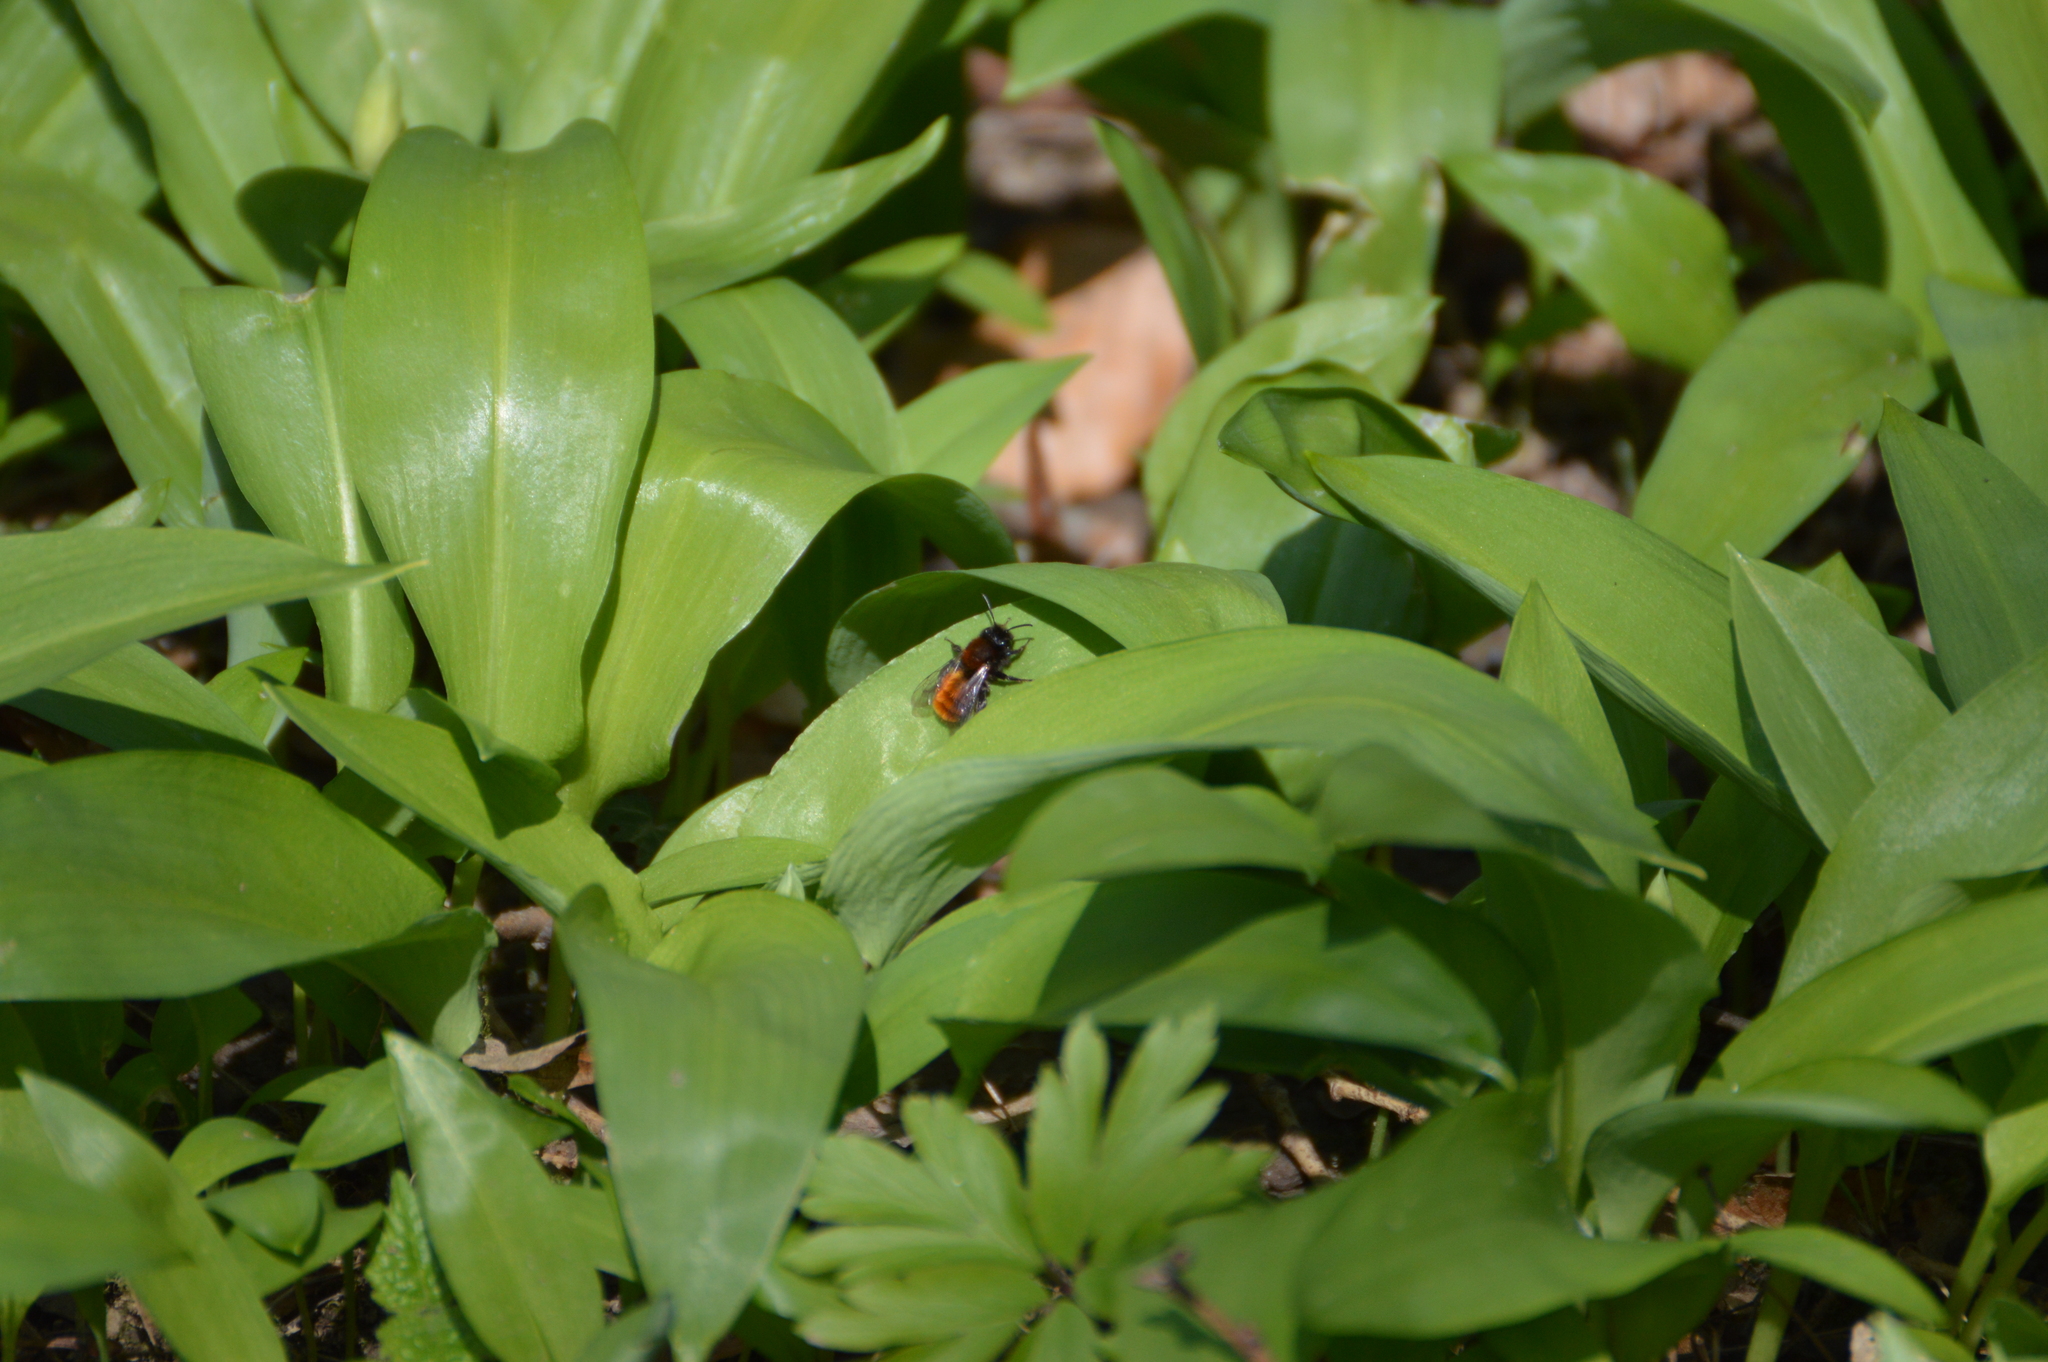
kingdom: Plantae
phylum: Tracheophyta
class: Liliopsida
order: Asparagales
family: Amaryllidaceae
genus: Allium
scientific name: Allium ursinum
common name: Ramsons
